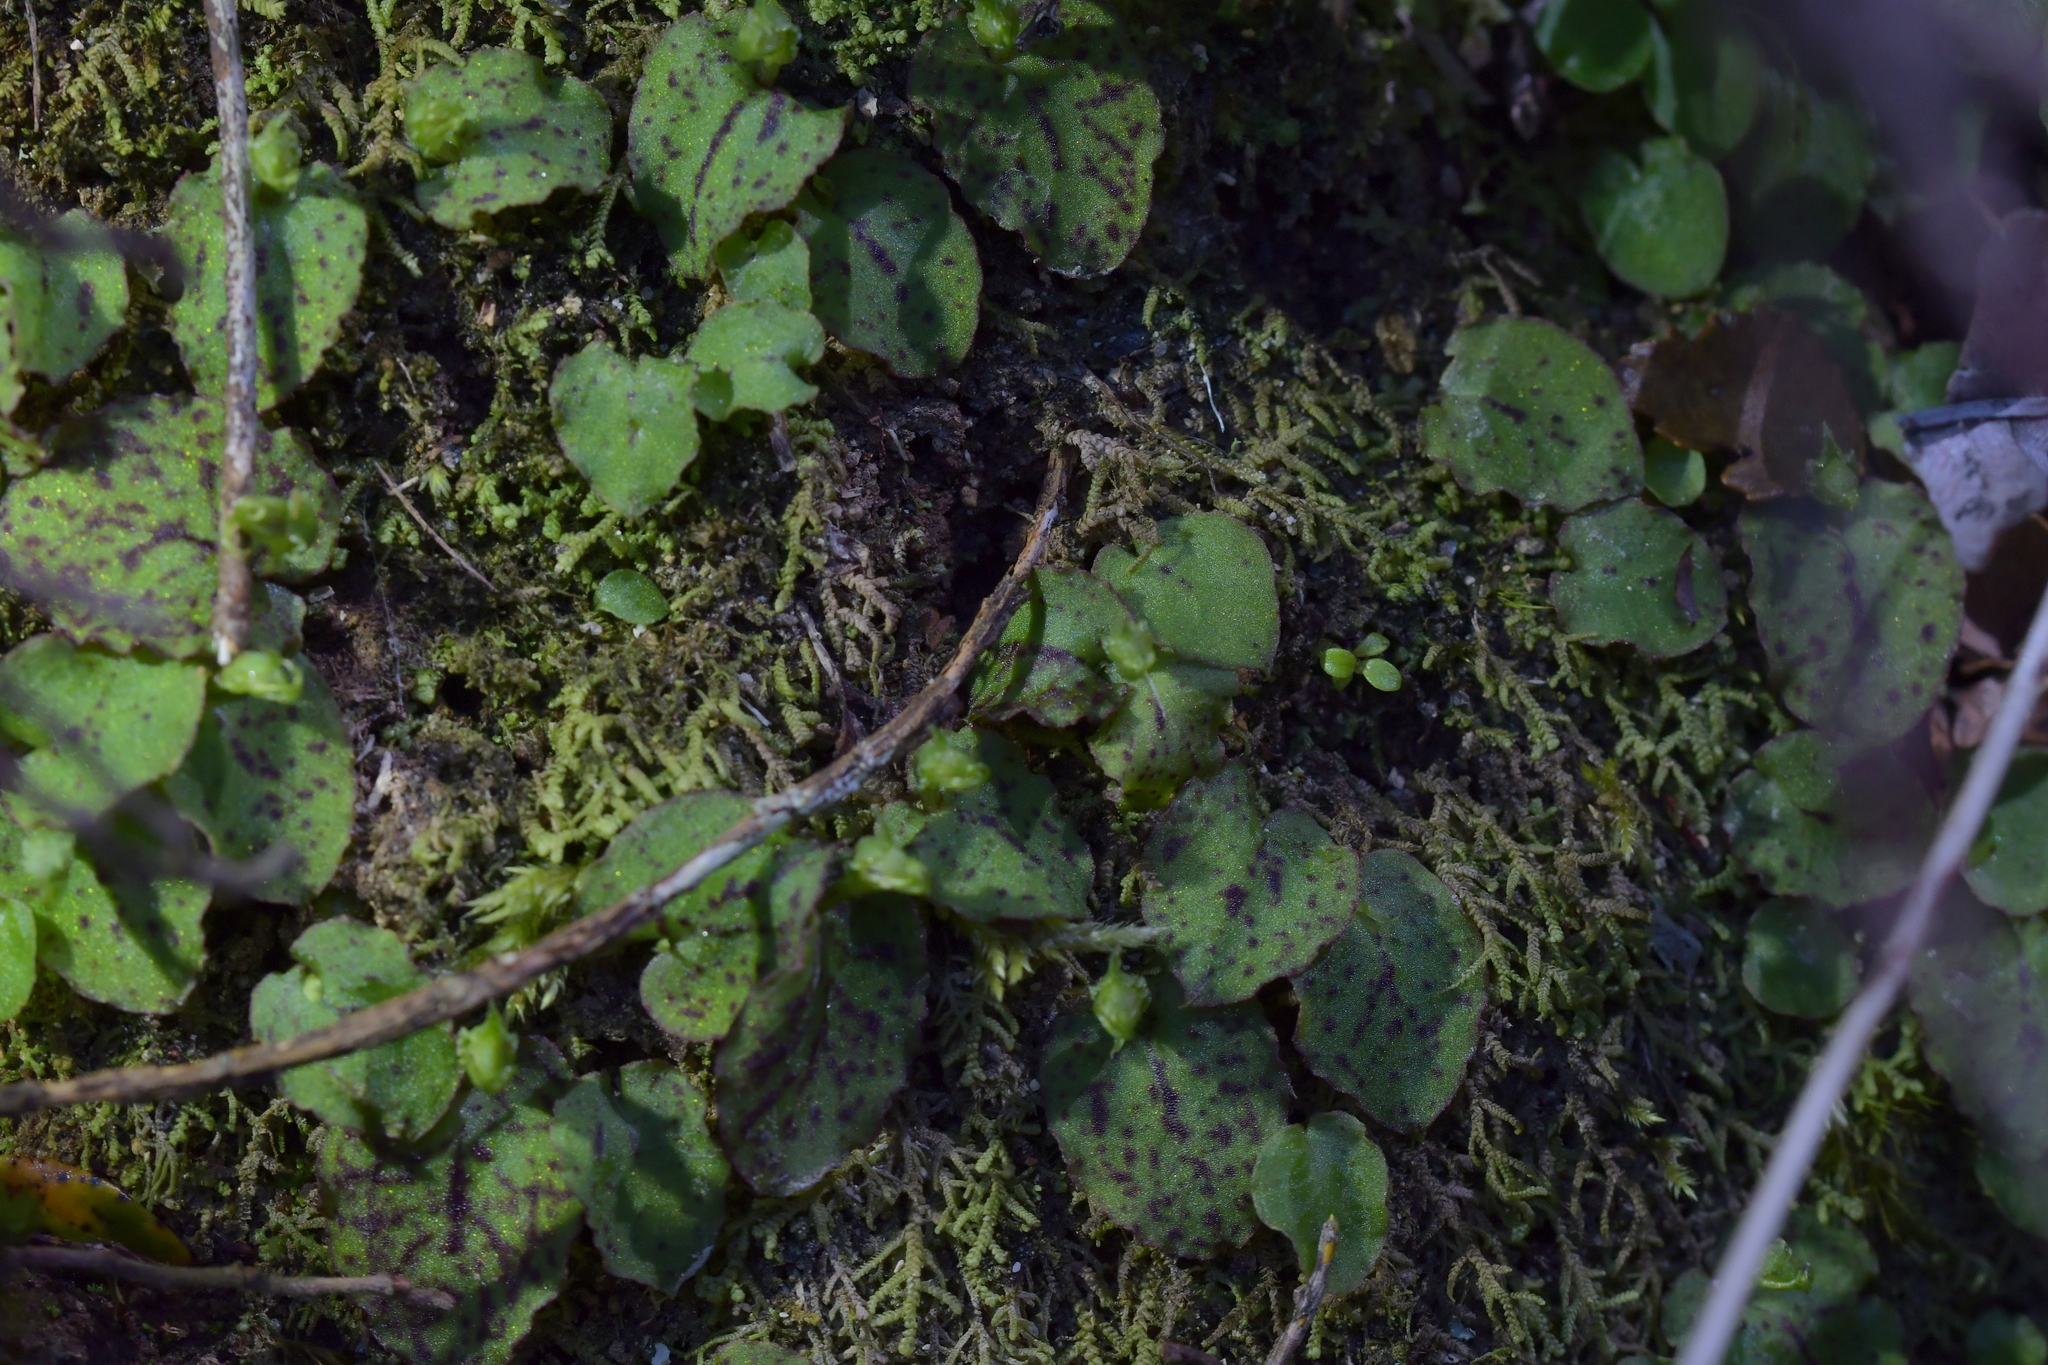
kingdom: Plantae
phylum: Tracheophyta
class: Liliopsida
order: Asparagales
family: Orchidaceae
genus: Corybas
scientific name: Corybas oblongus
